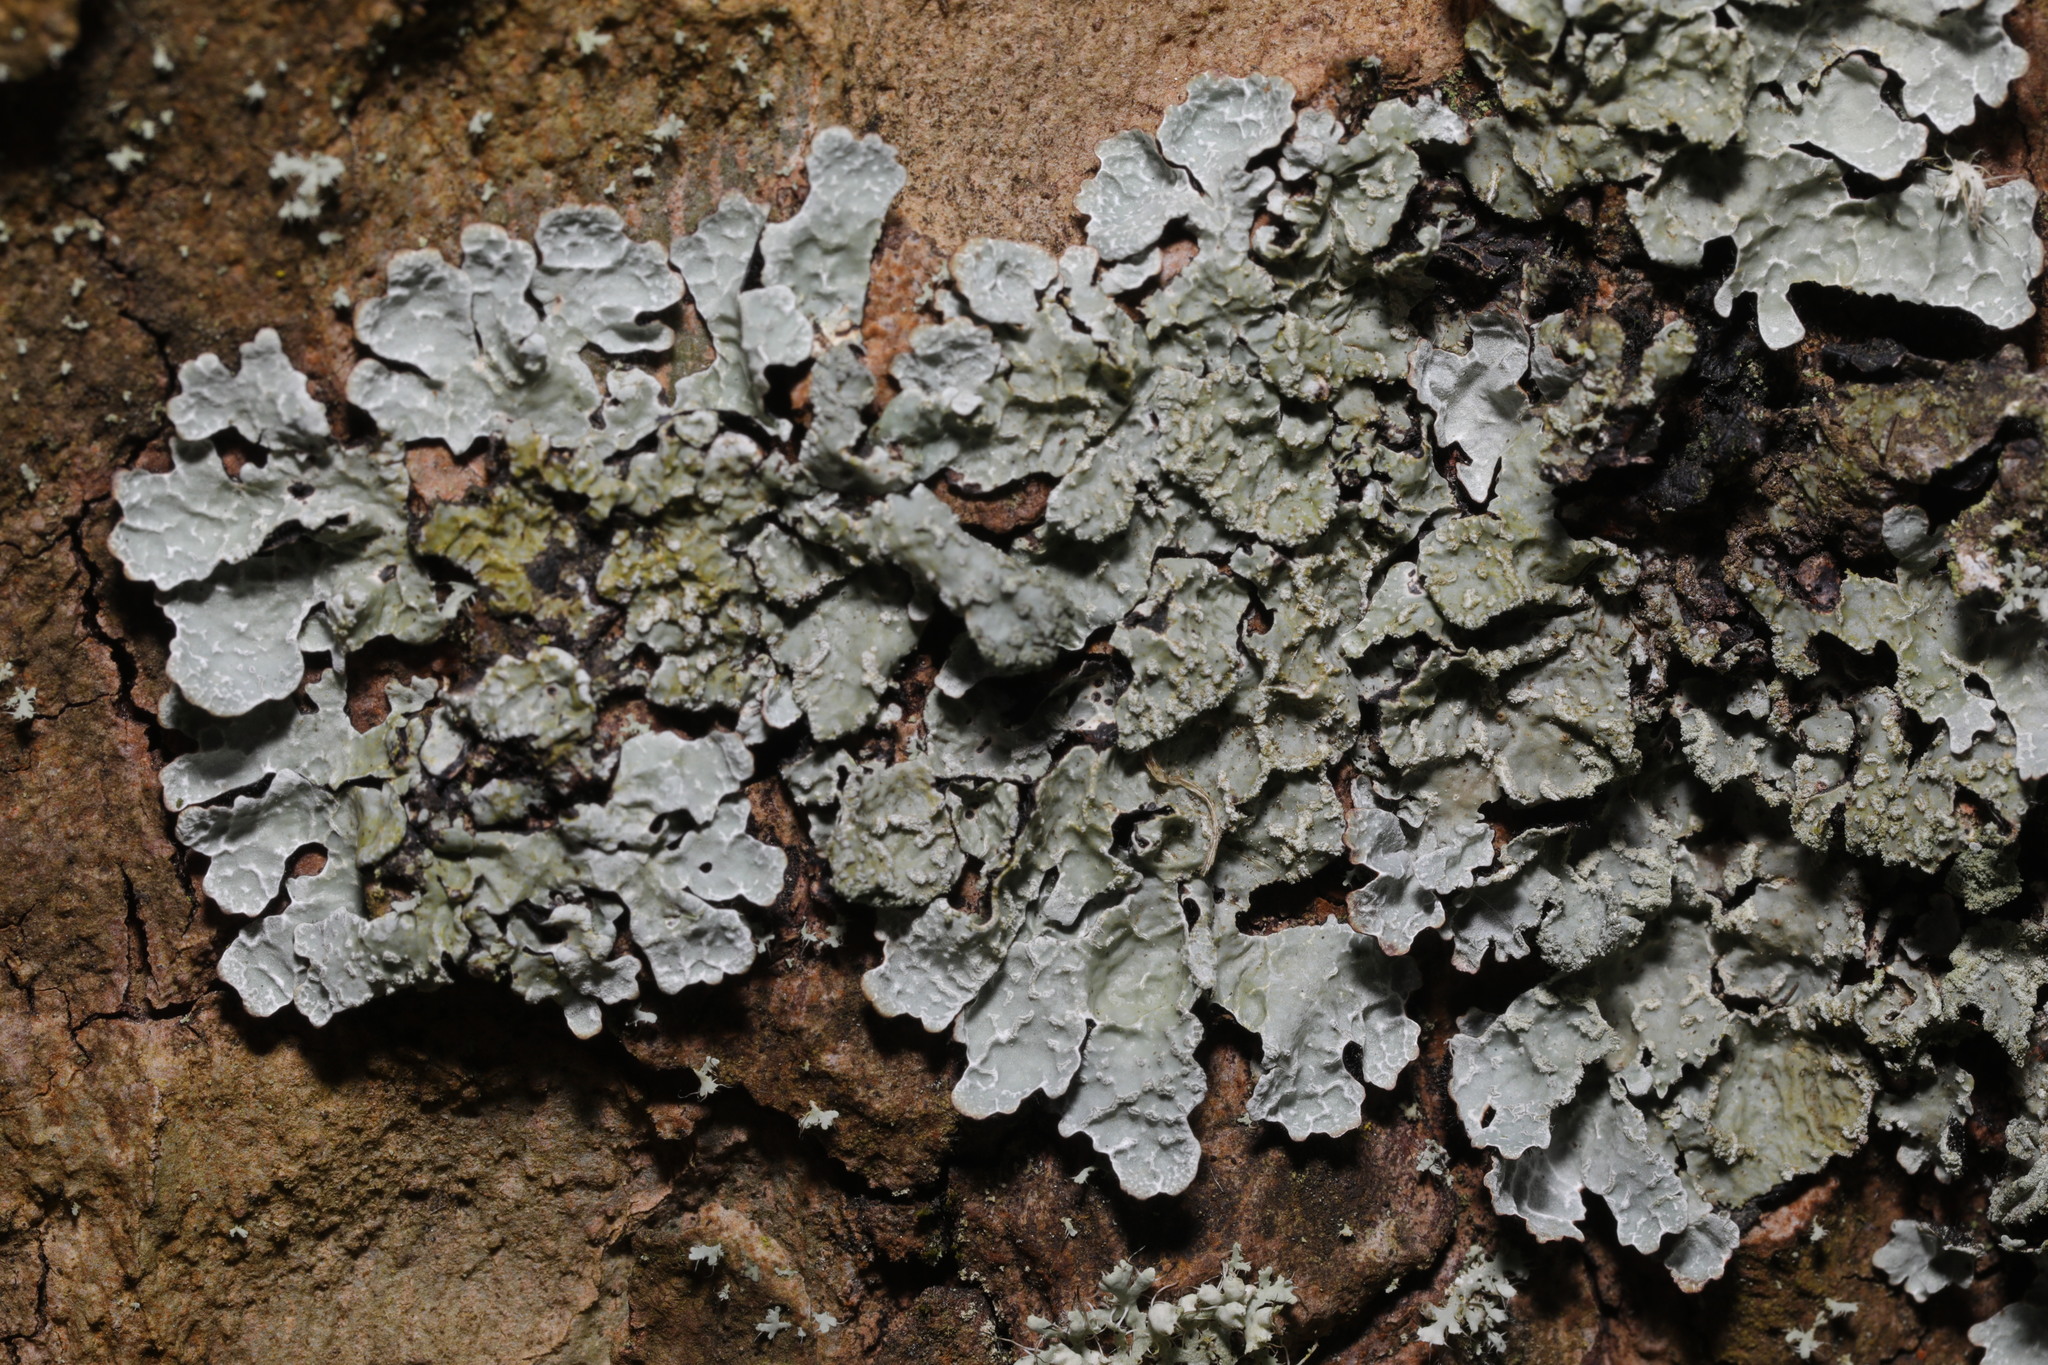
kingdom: Fungi
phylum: Ascomycota
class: Lecanoromycetes
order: Lecanorales
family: Parmeliaceae
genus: Parmelia
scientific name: Parmelia sulcata
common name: Netted shield lichen
